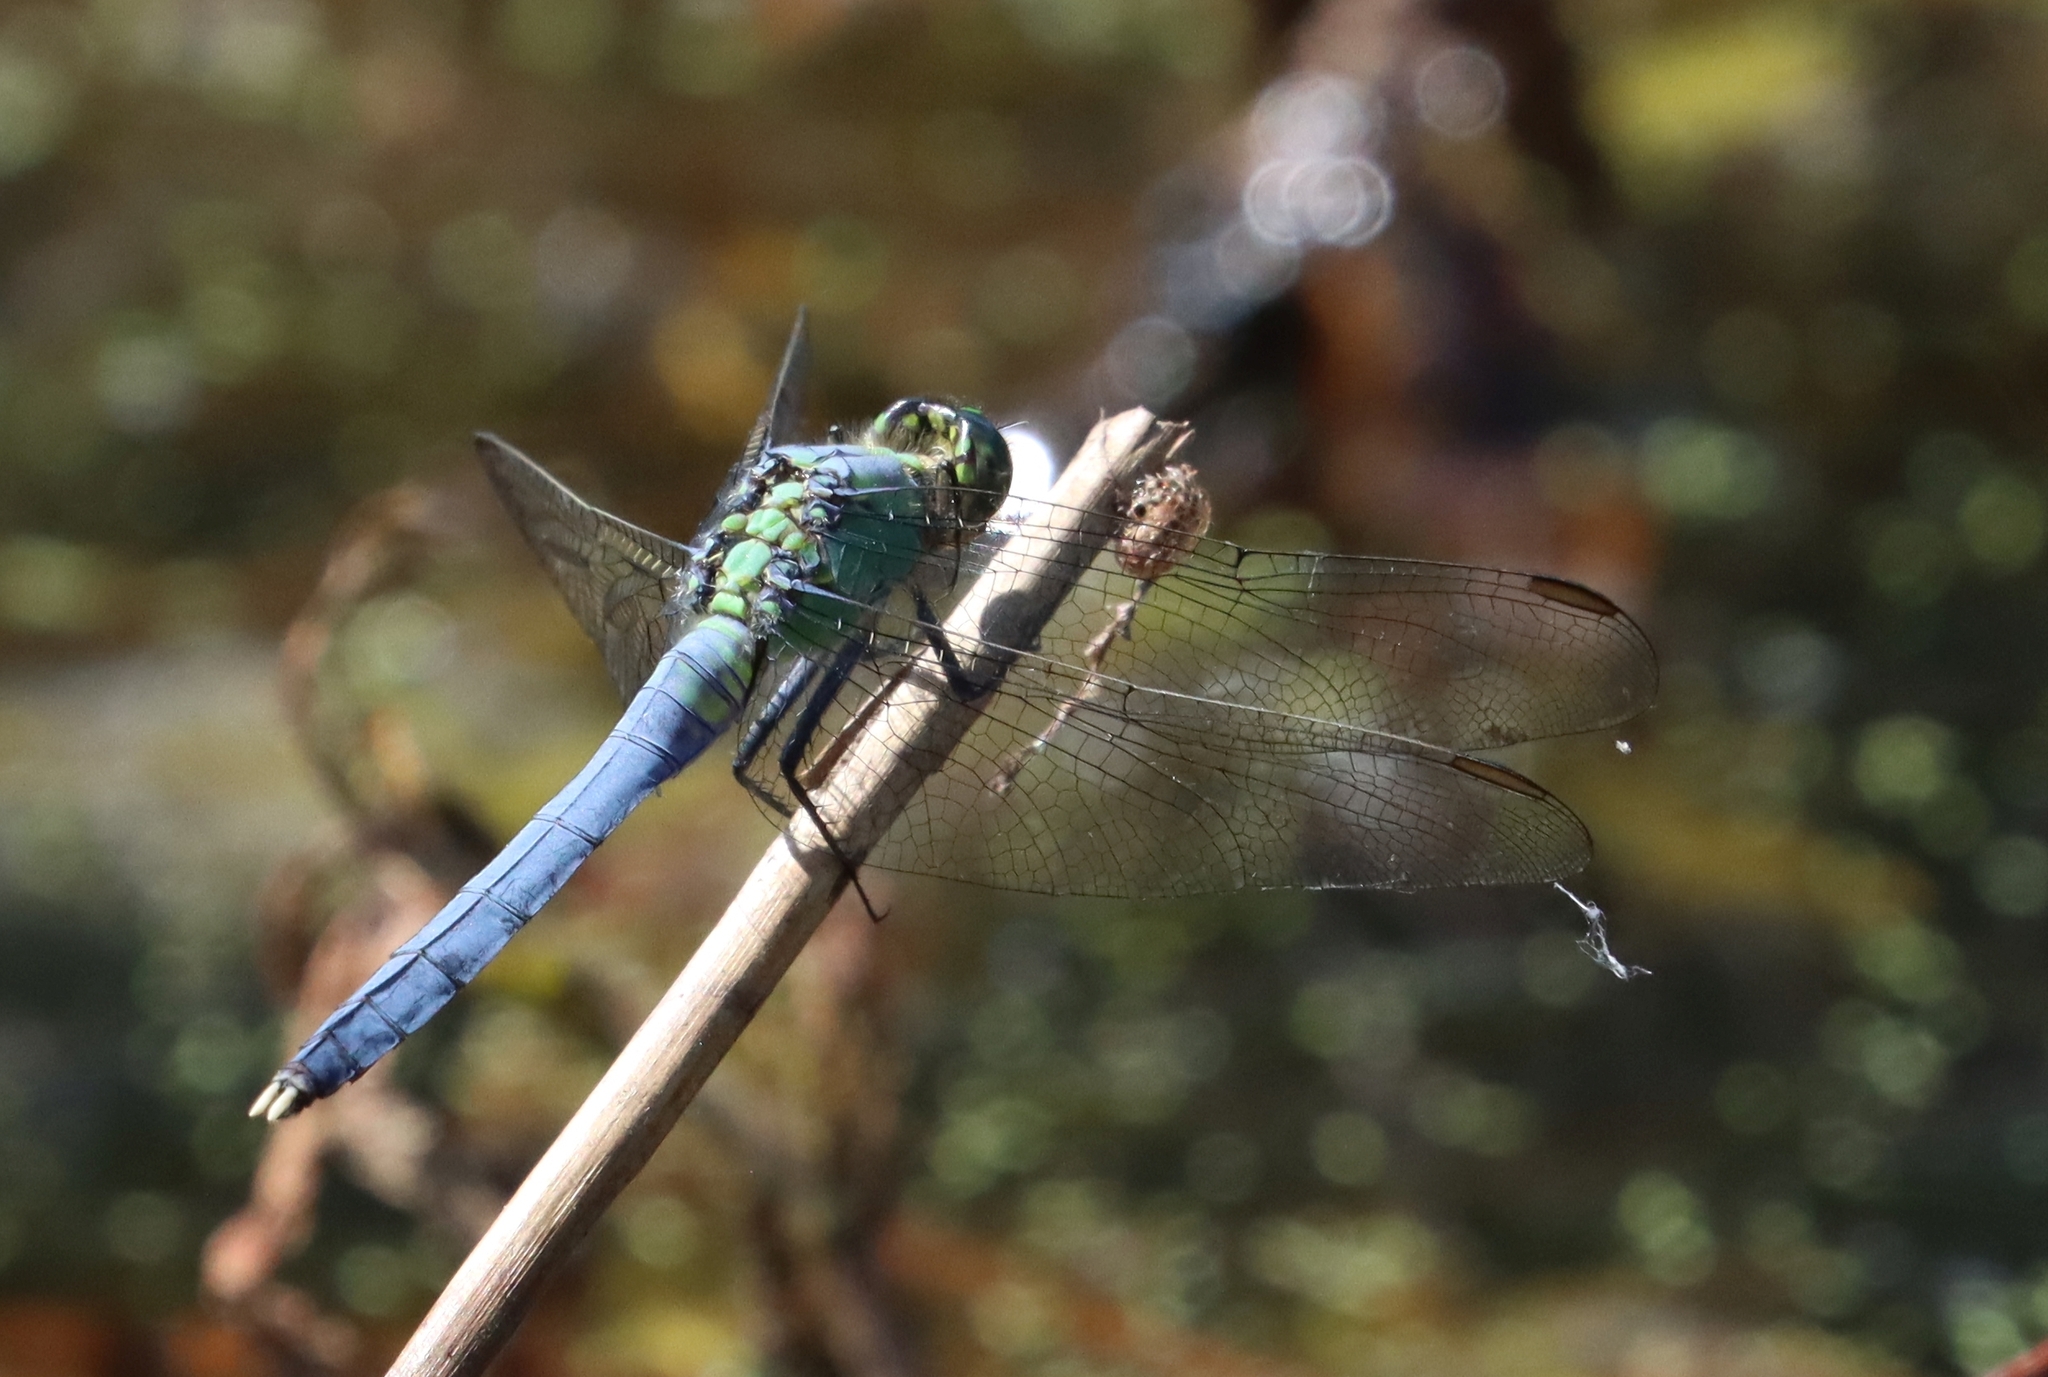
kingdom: Animalia
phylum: Arthropoda
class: Insecta
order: Odonata
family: Libellulidae
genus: Erythemis
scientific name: Erythemis simplicicollis
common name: Eastern pondhawk
